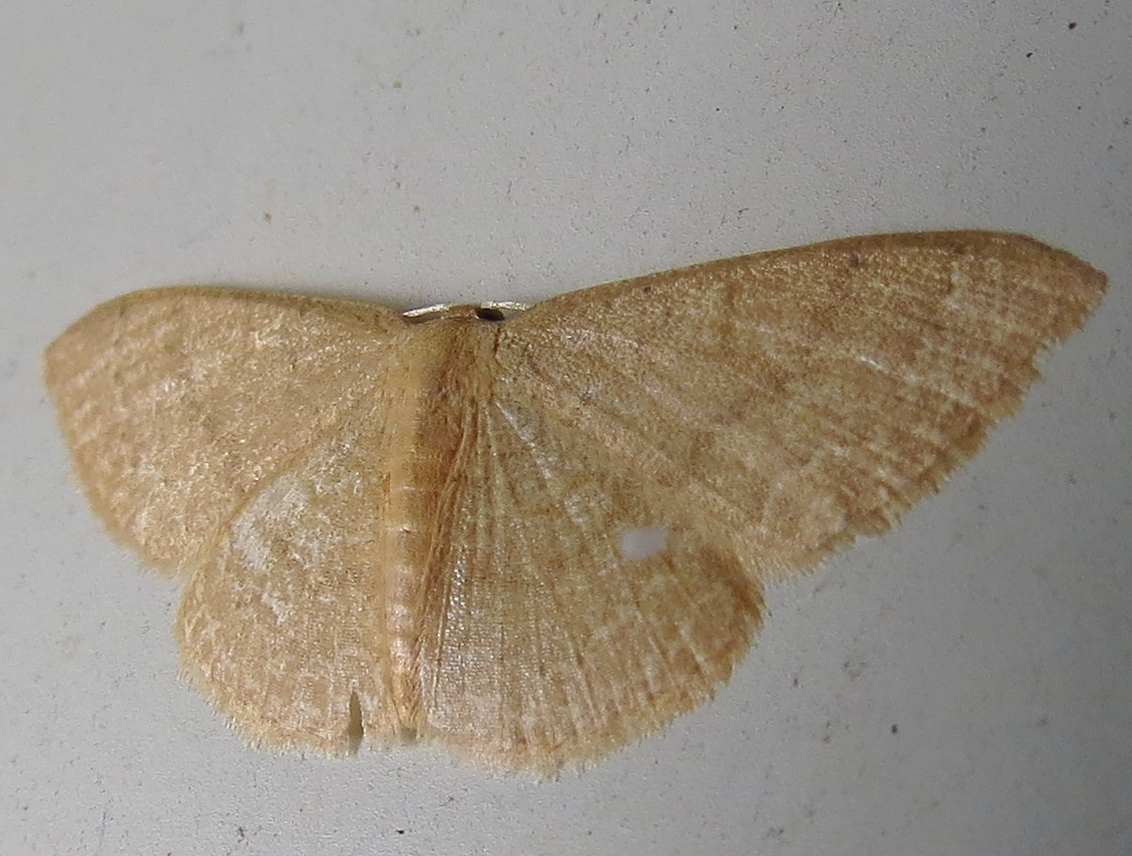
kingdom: Animalia
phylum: Arthropoda
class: Insecta
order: Lepidoptera
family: Geometridae
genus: Pleuroprucha
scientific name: Pleuroprucha insulsaria
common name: Common tan wave
